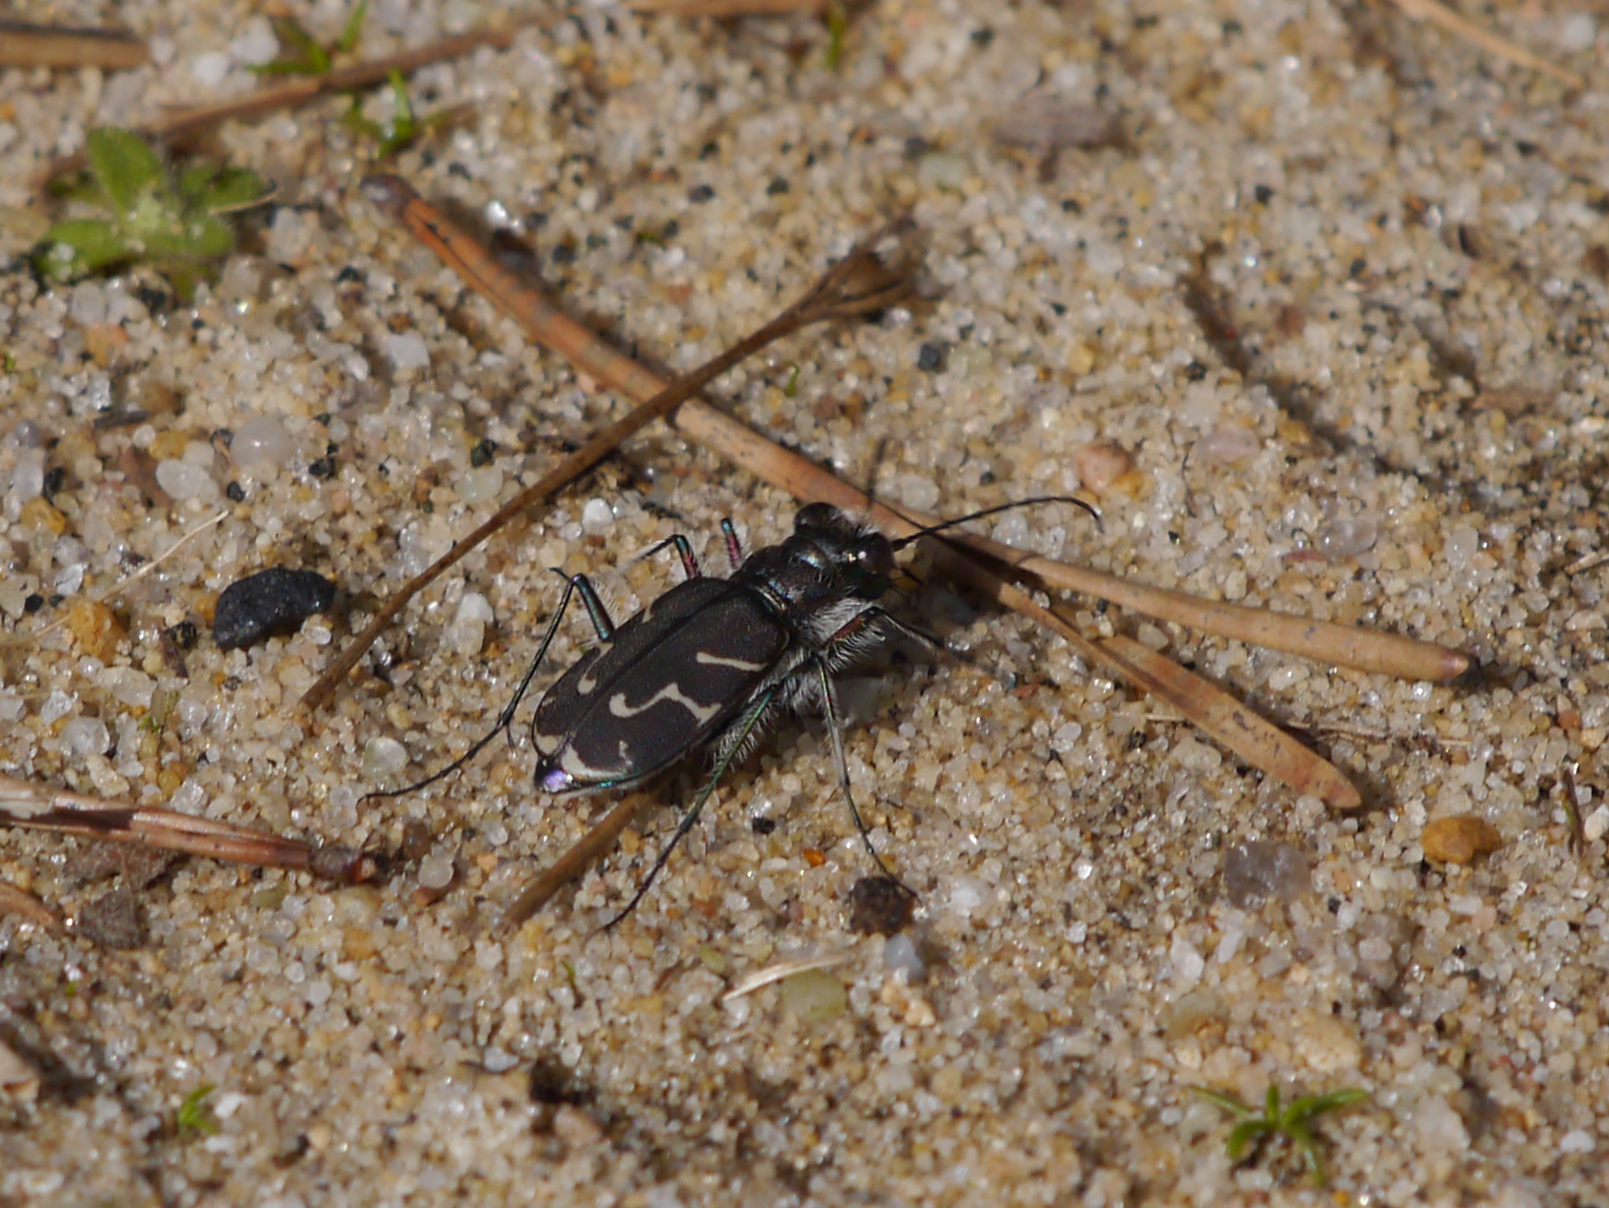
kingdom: Animalia
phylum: Arthropoda
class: Insecta
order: Coleoptera
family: Carabidae
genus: Cicindela
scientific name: Cicindela tranquebarica
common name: Oblique-lined tiger beetle
